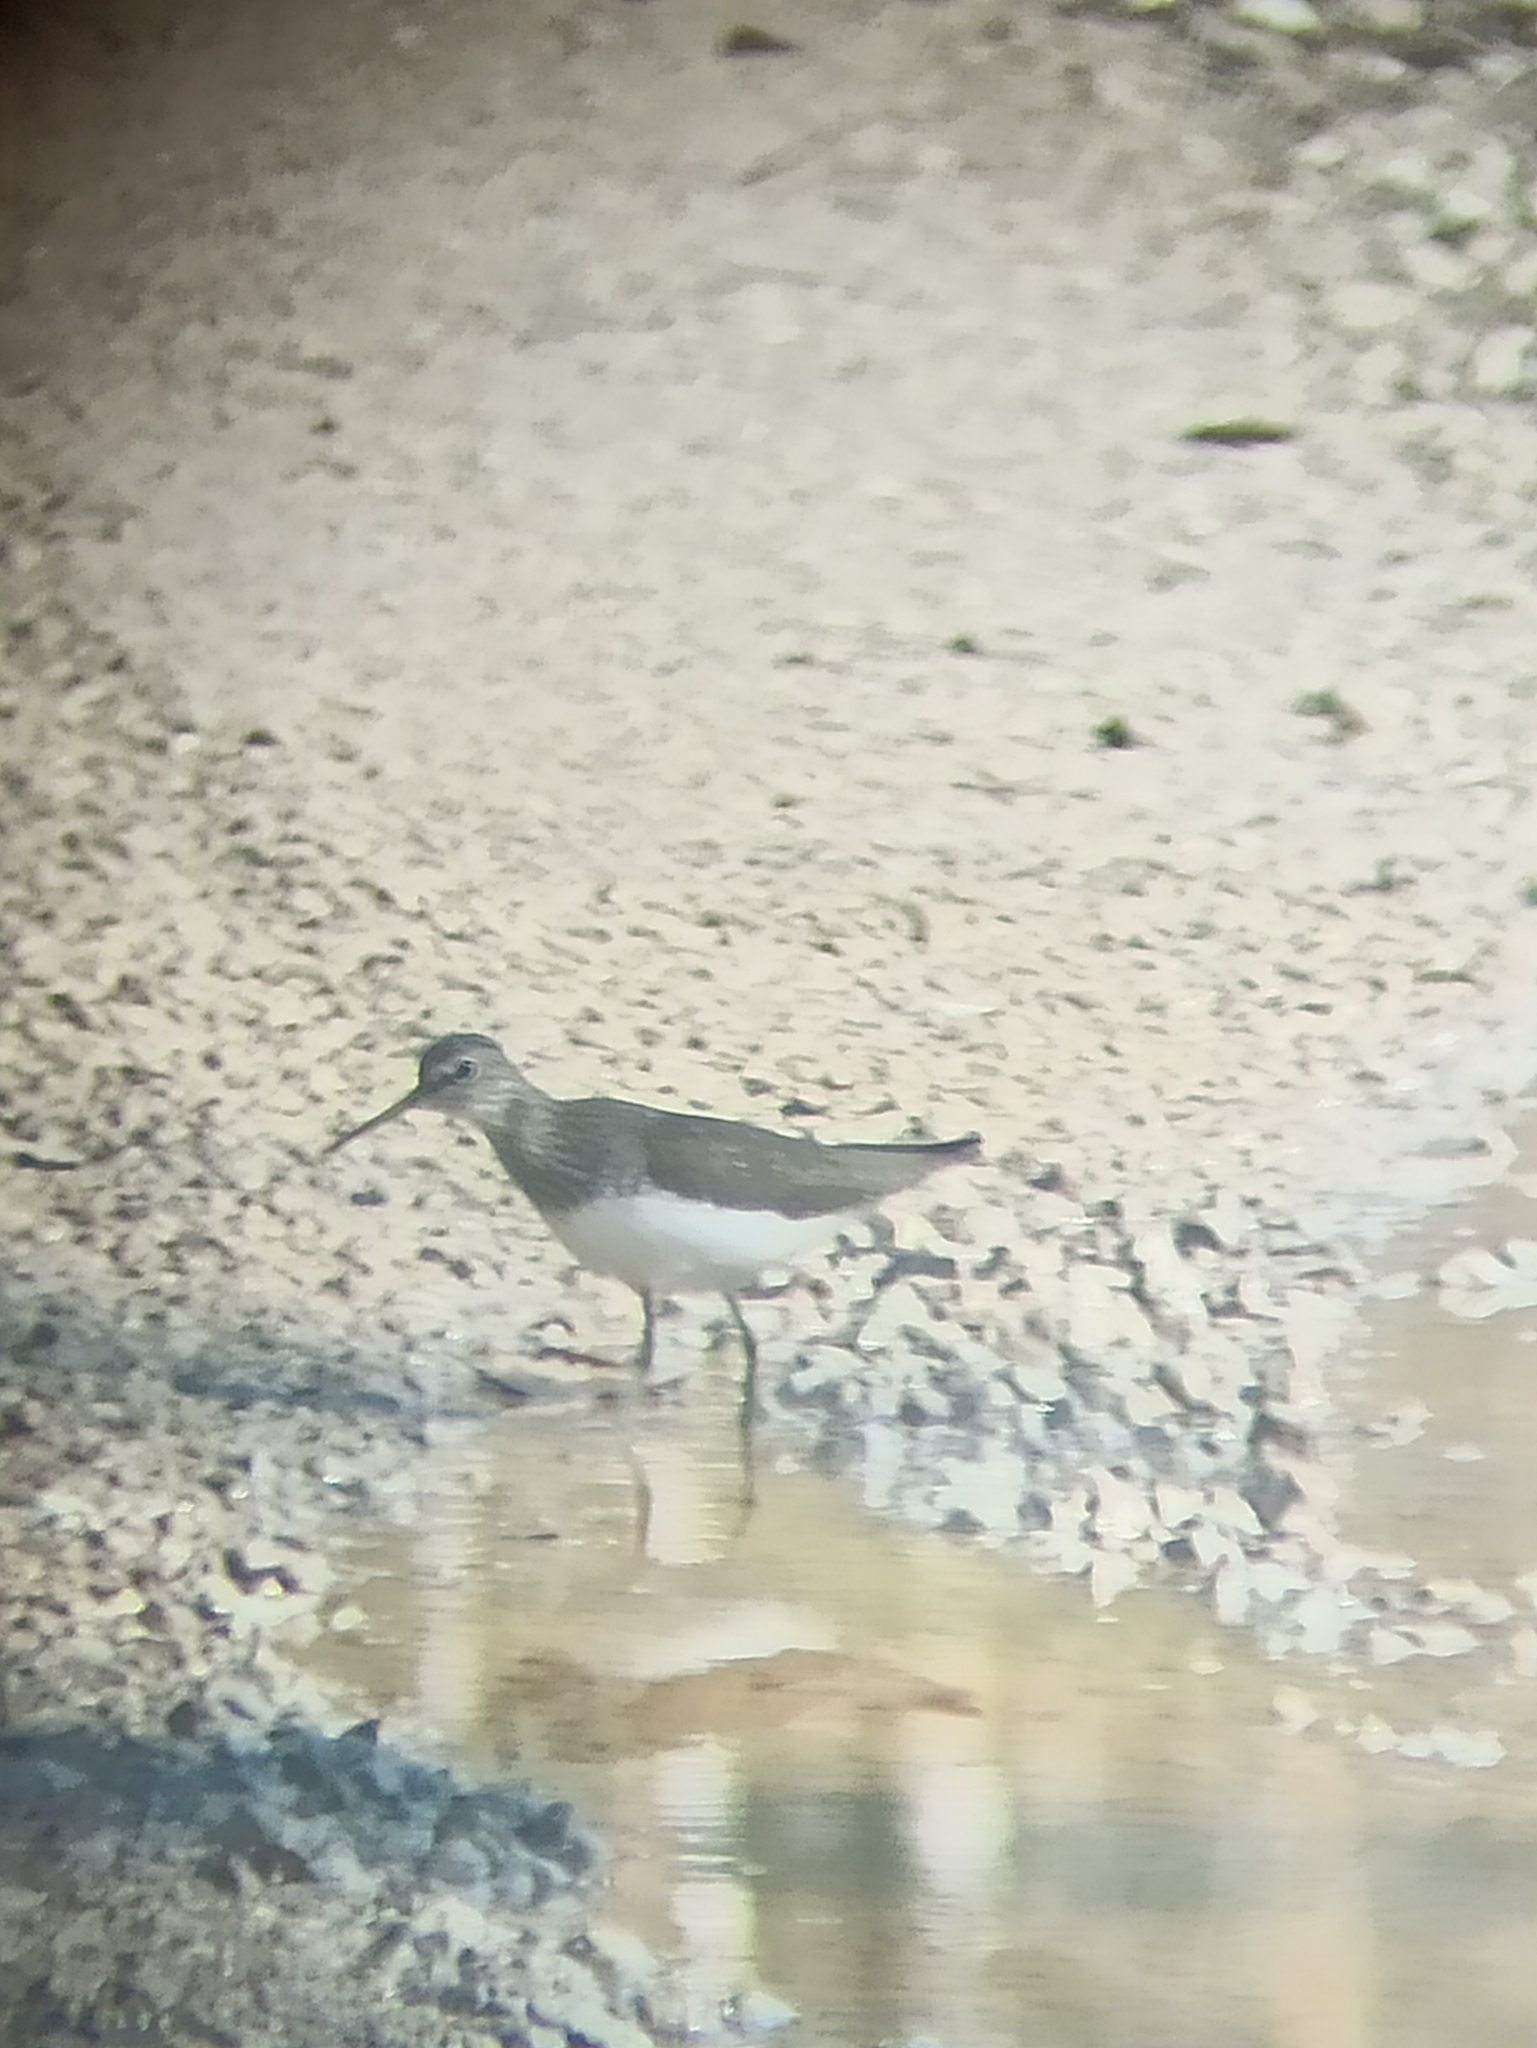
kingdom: Animalia
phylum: Chordata
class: Aves
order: Charadriiformes
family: Scolopacidae
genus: Tringa
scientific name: Tringa ochropus
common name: Green sandpiper
